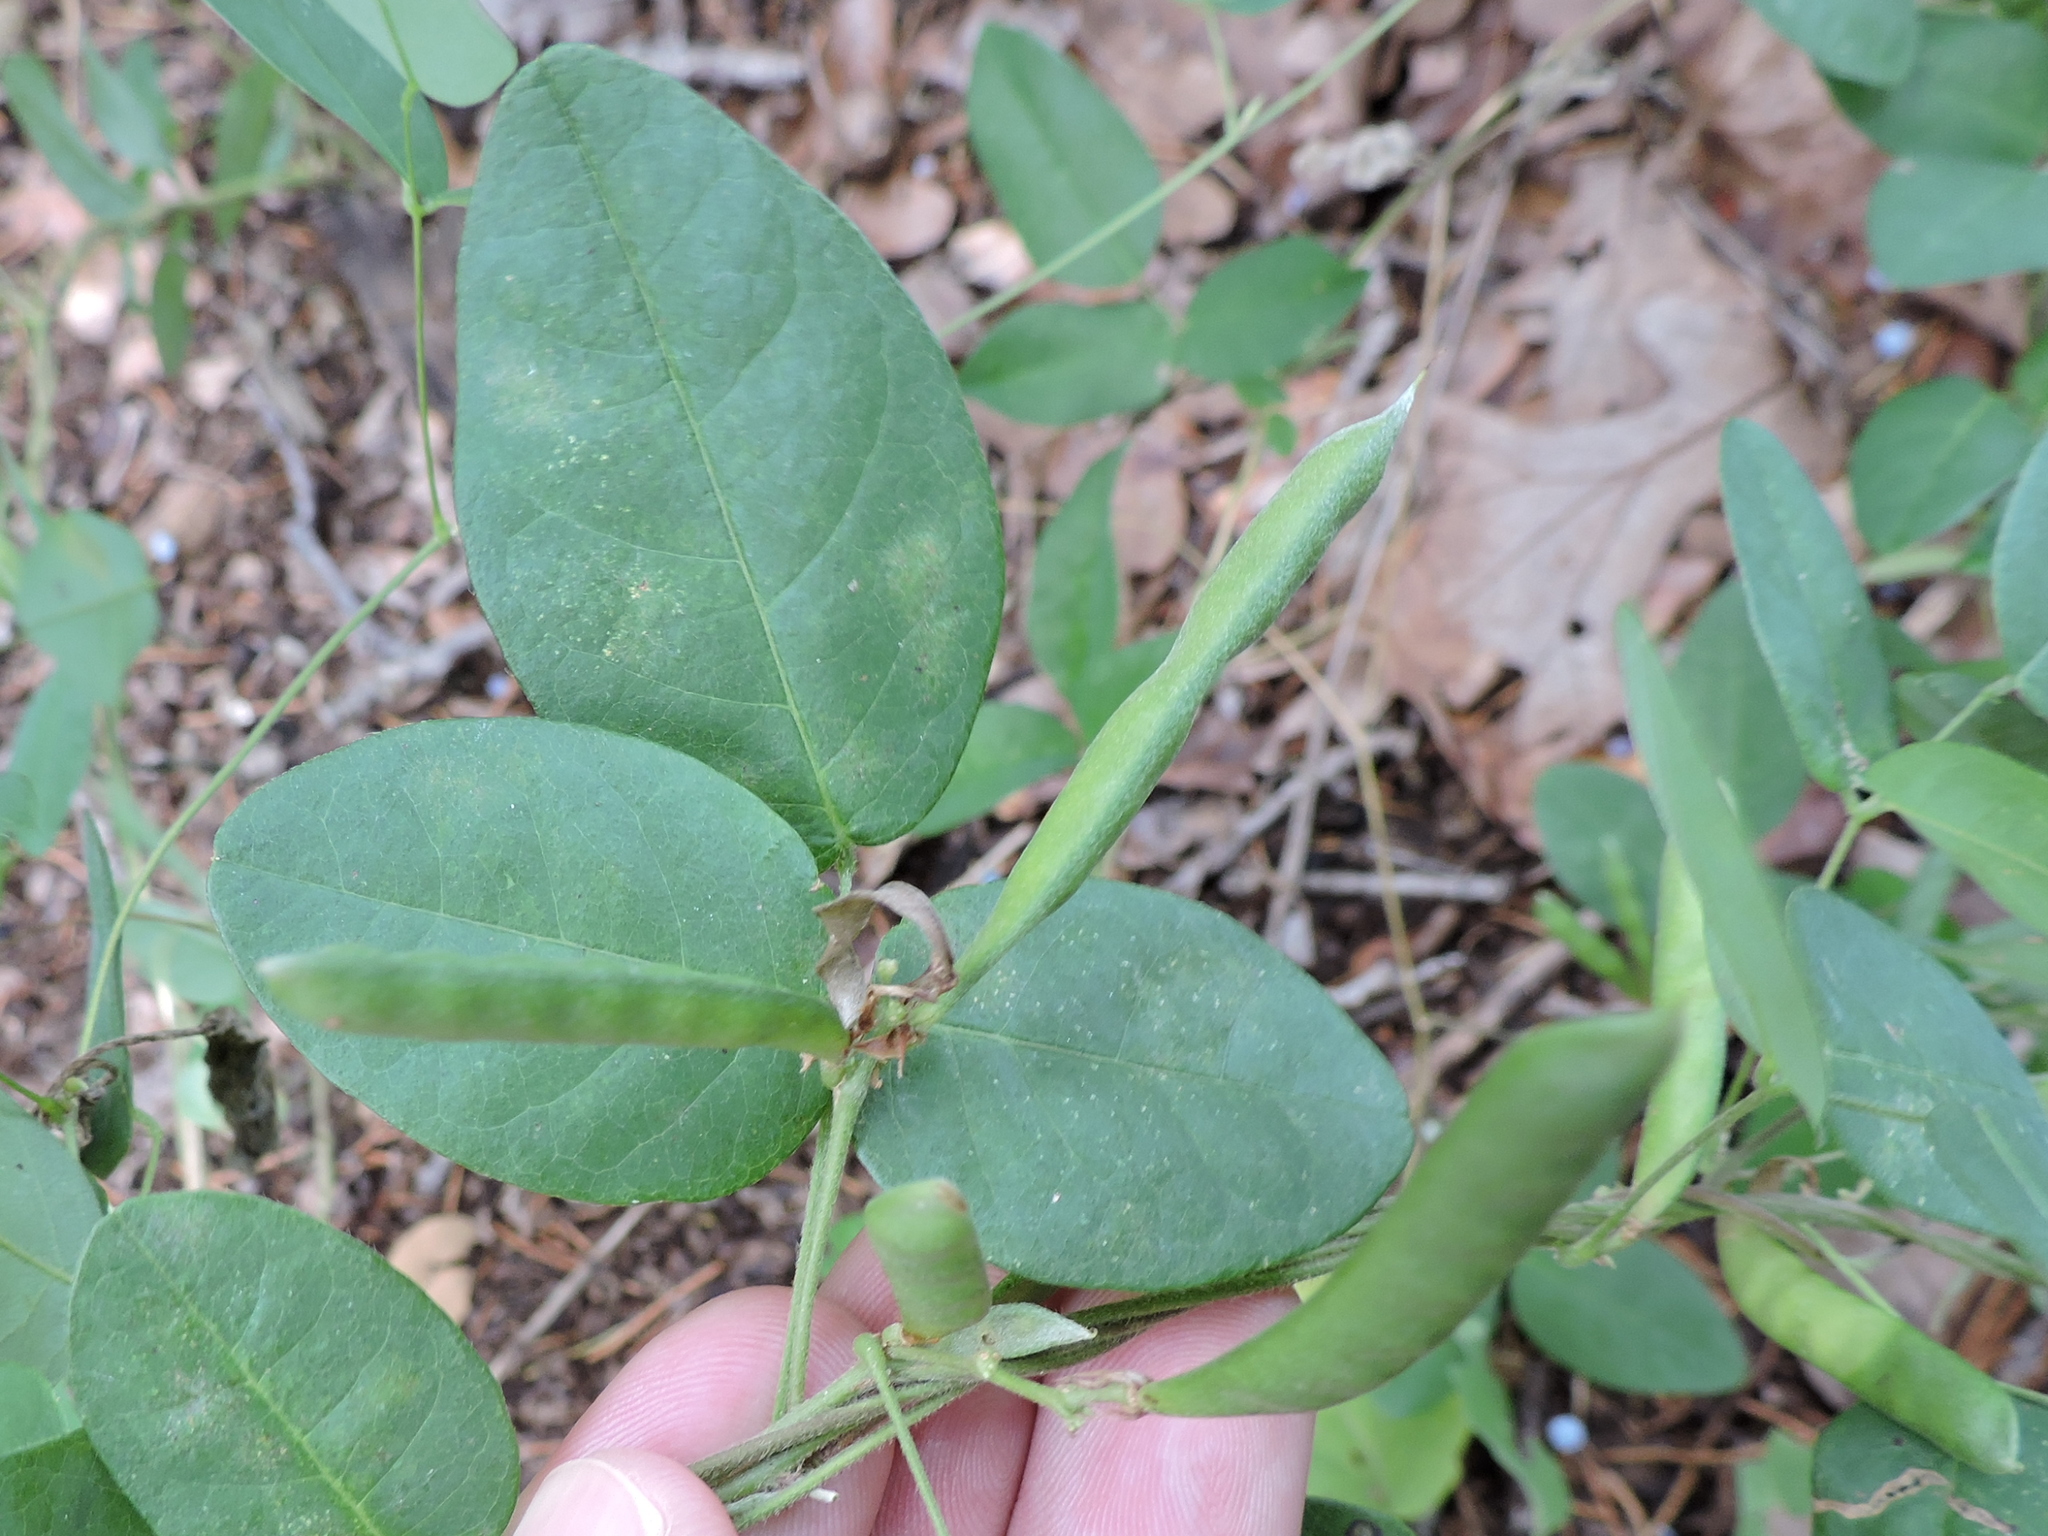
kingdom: Plantae
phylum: Tracheophyta
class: Magnoliopsida
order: Fabales
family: Fabaceae
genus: Galactia
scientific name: Galactia regularis
